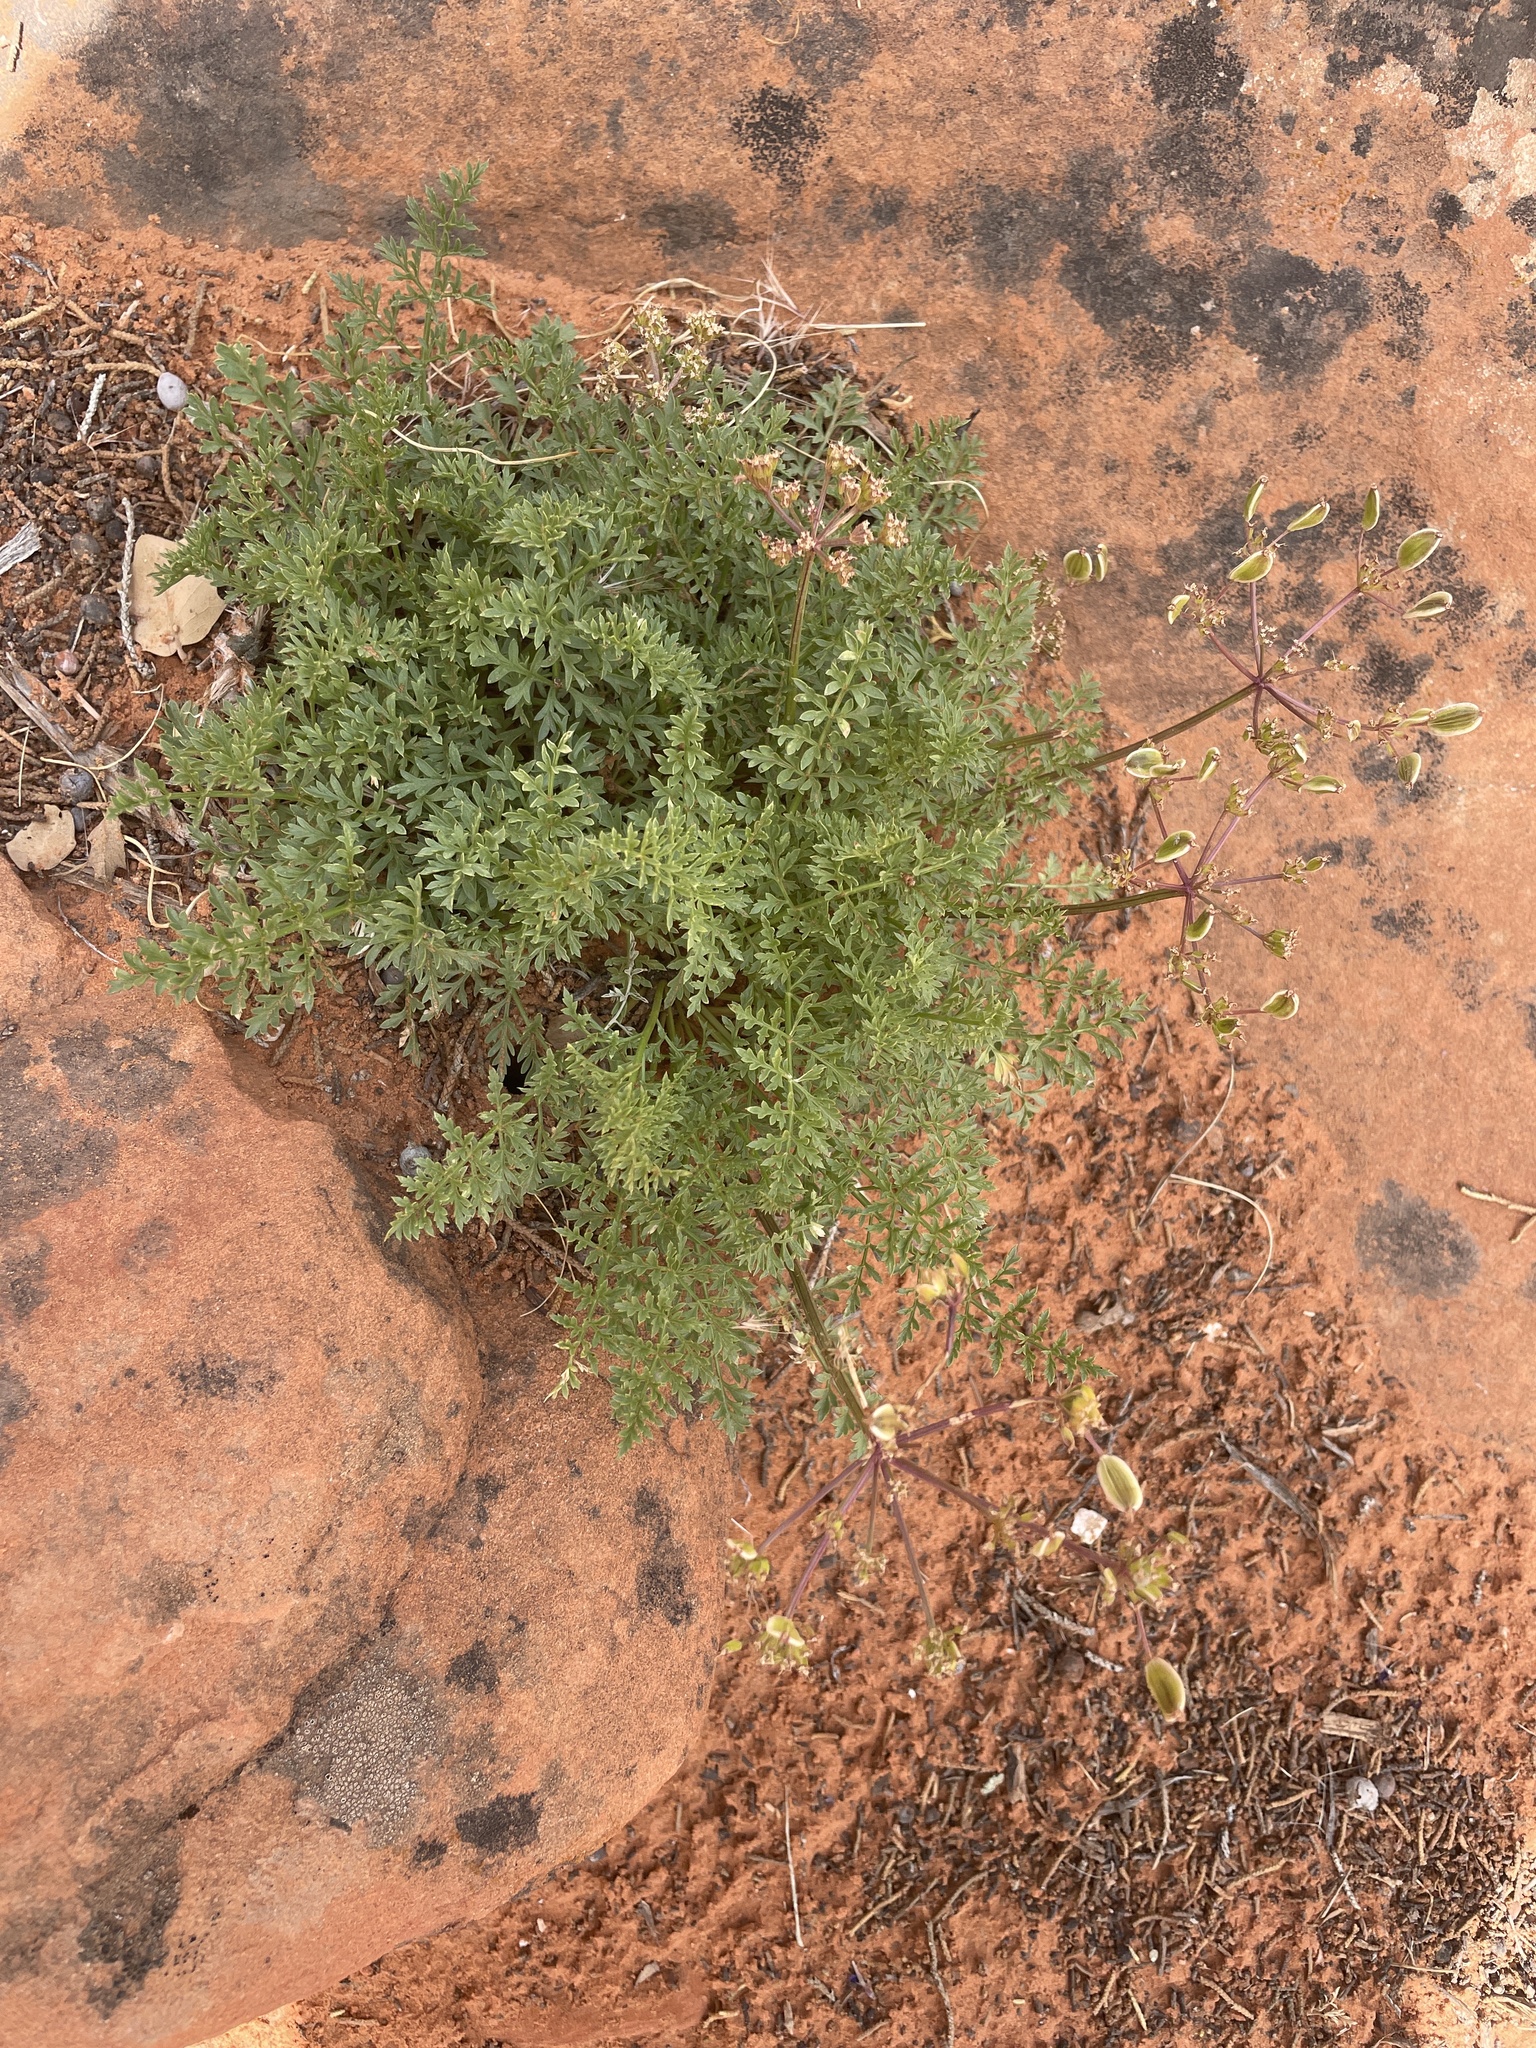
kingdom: Plantae
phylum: Tracheophyta
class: Magnoliopsida
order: Apiales
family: Apiaceae
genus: Lomatium
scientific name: Lomatium parryi
